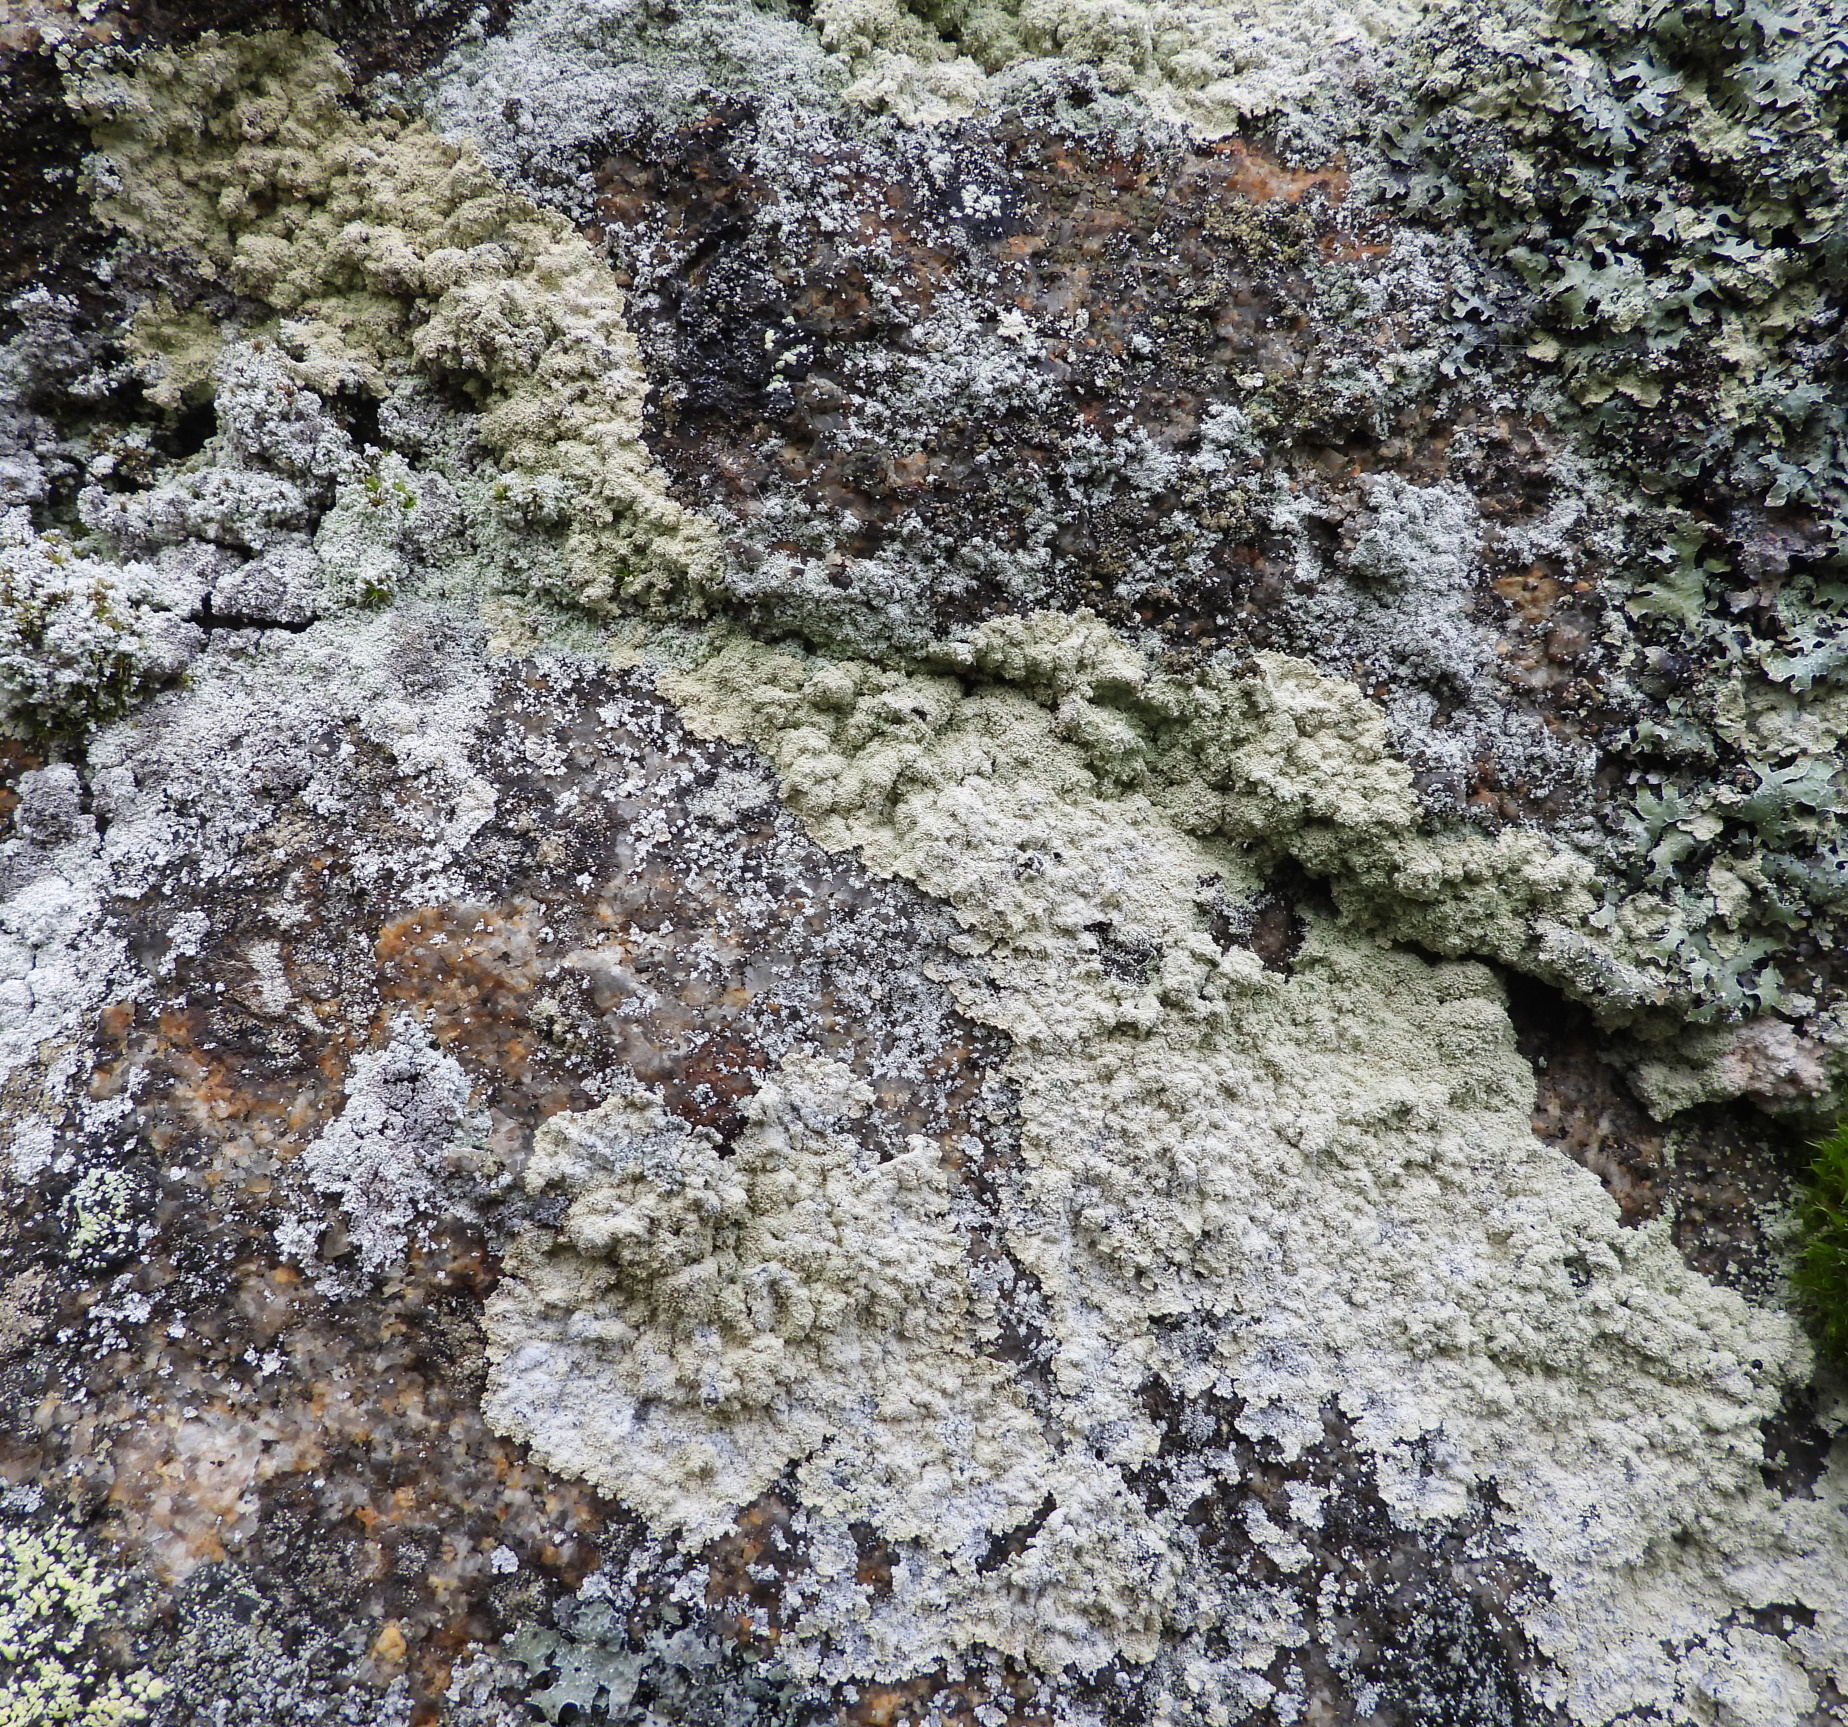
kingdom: Fungi
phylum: Ascomycota
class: Lecanoromycetes
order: Lecanorales
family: Stereocaulaceae
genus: Lepraria
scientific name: Lepraria membranacea
